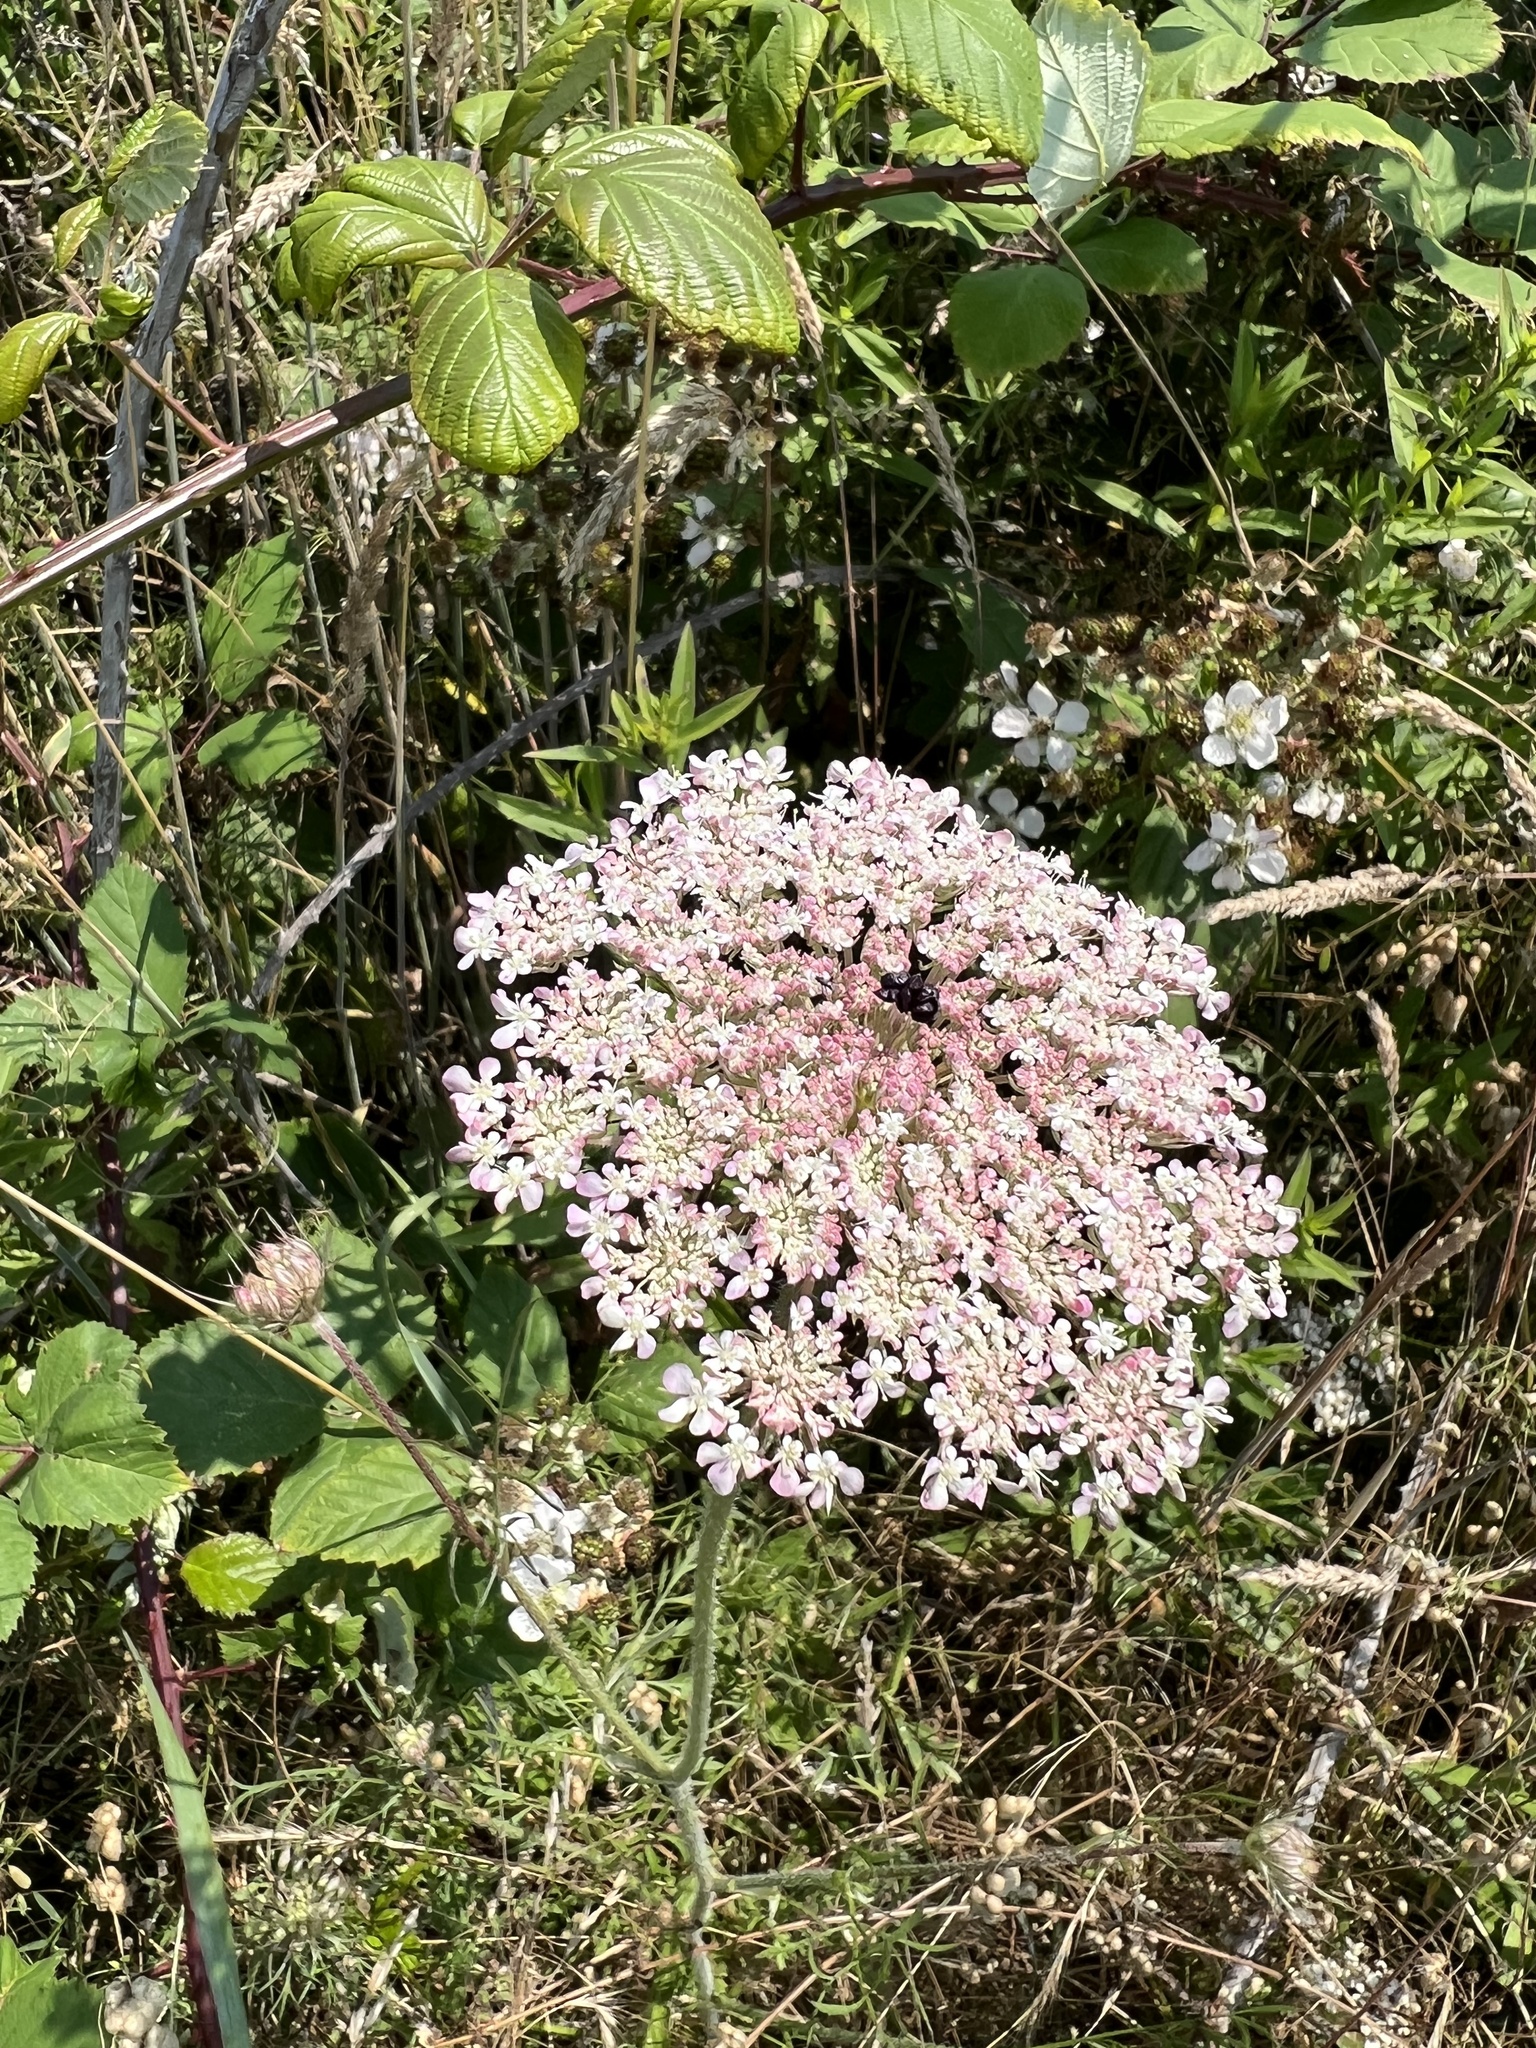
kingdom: Plantae
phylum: Tracheophyta
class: Magnoliopsida
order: Apiales
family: Apiaceae
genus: Daucus
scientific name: Daucus carota
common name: Wild carrot
